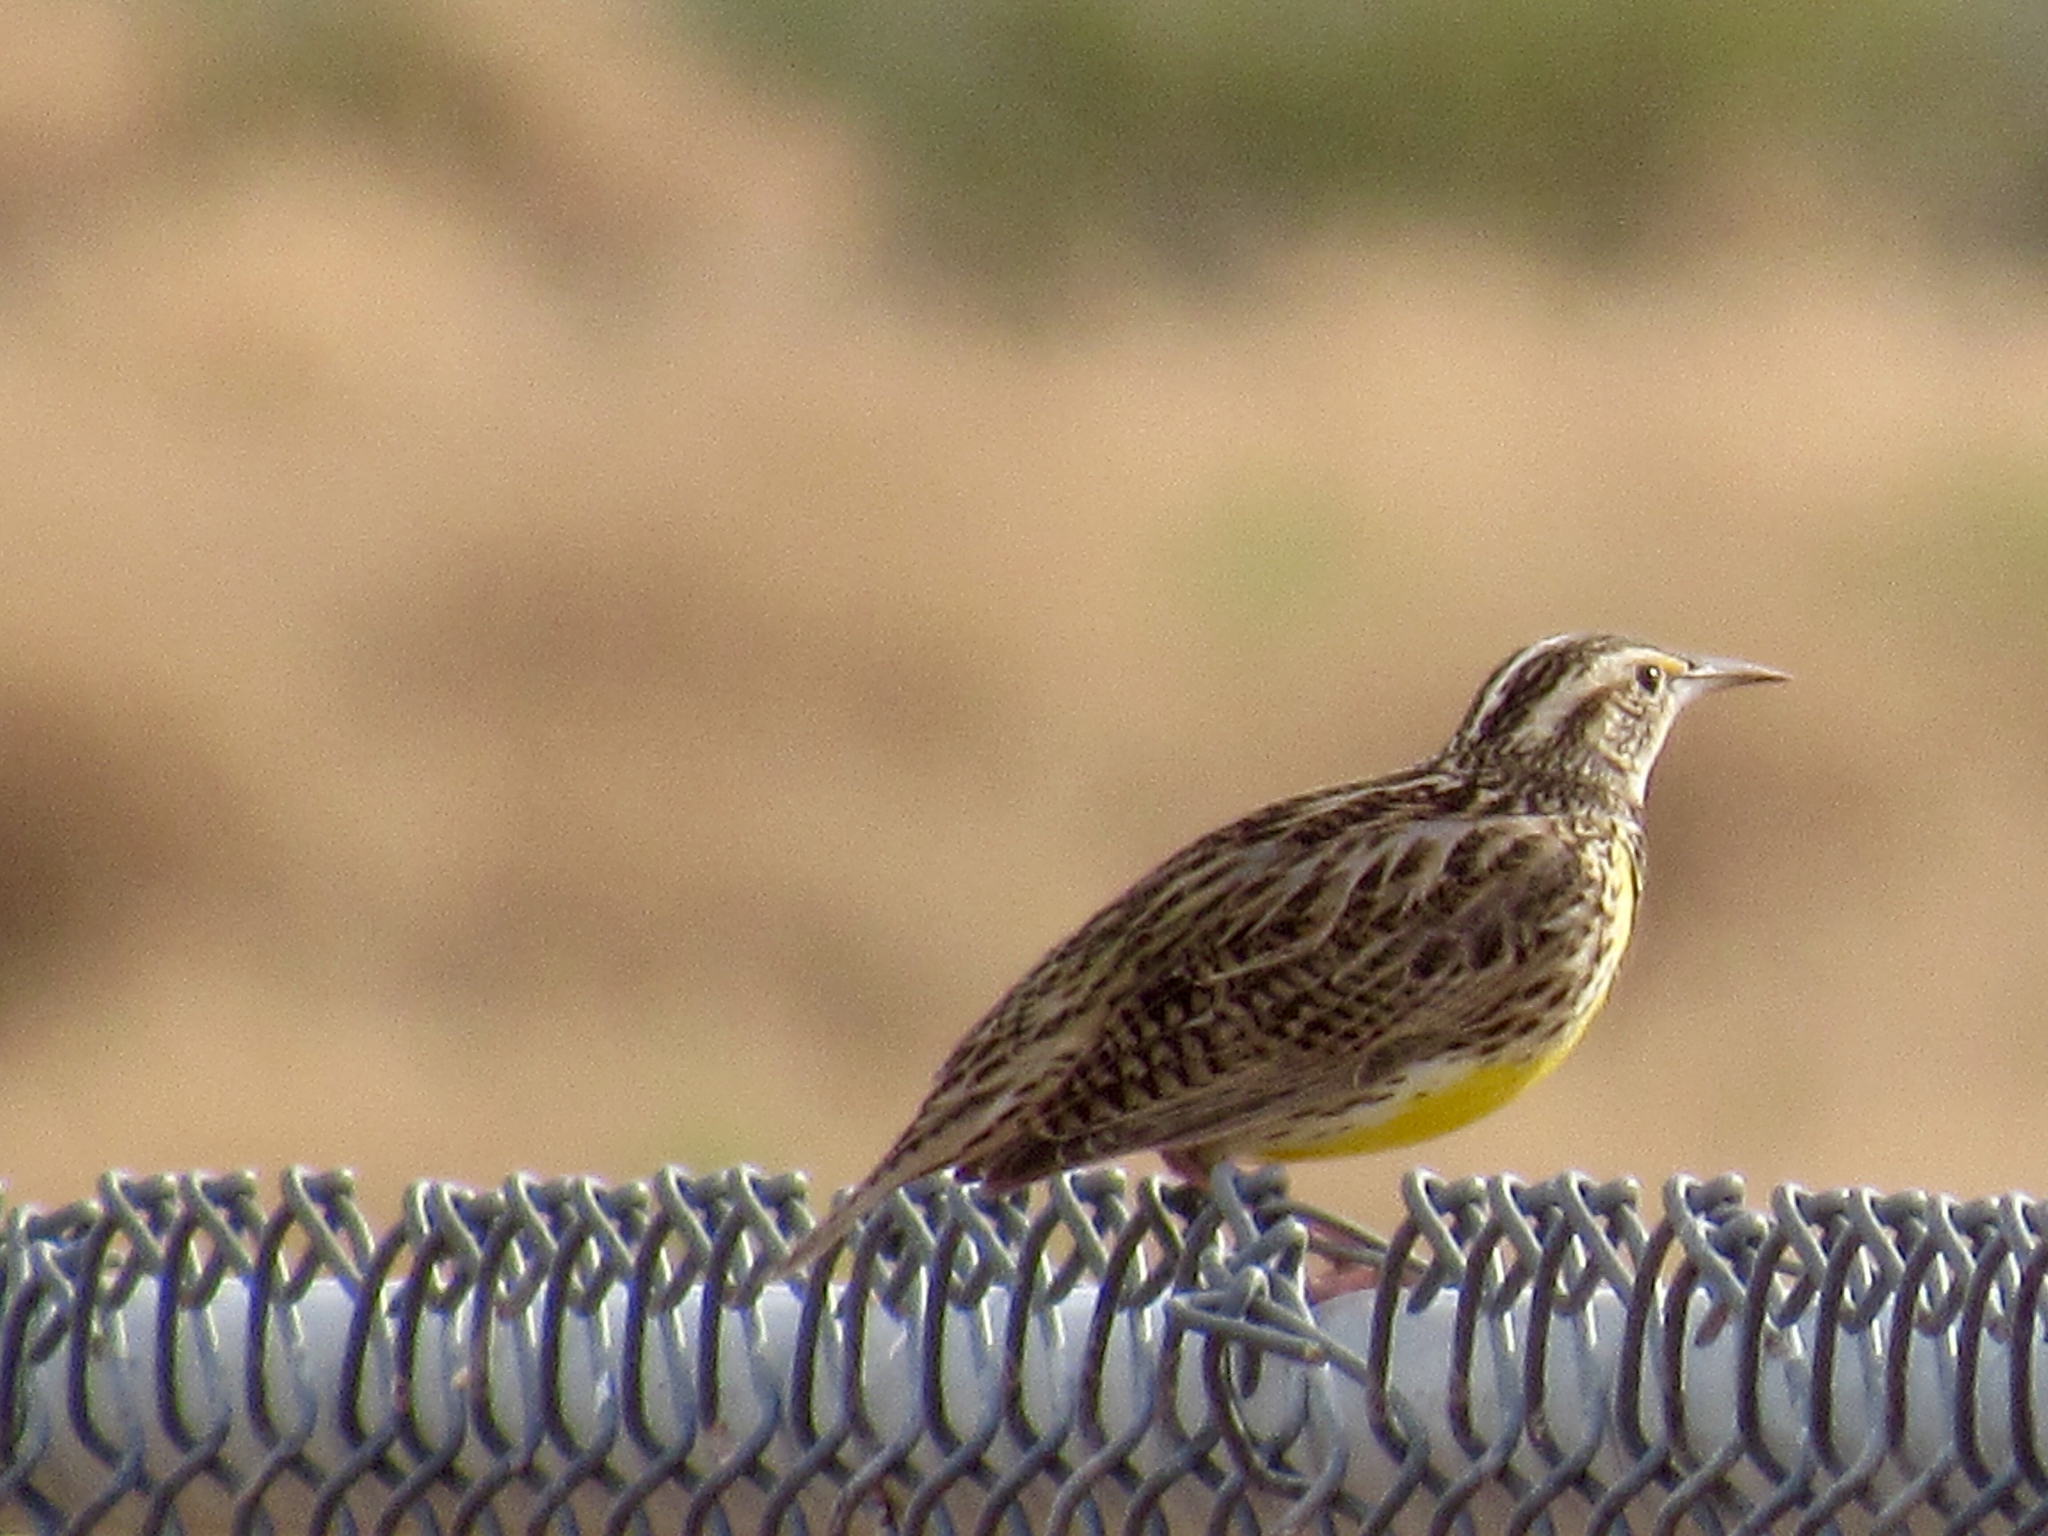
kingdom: Animalia
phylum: Chordata
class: Aves
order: Passeriformes
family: Icteridae
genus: Sturnella
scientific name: Sturnella neglecta
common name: Western meadowlark
